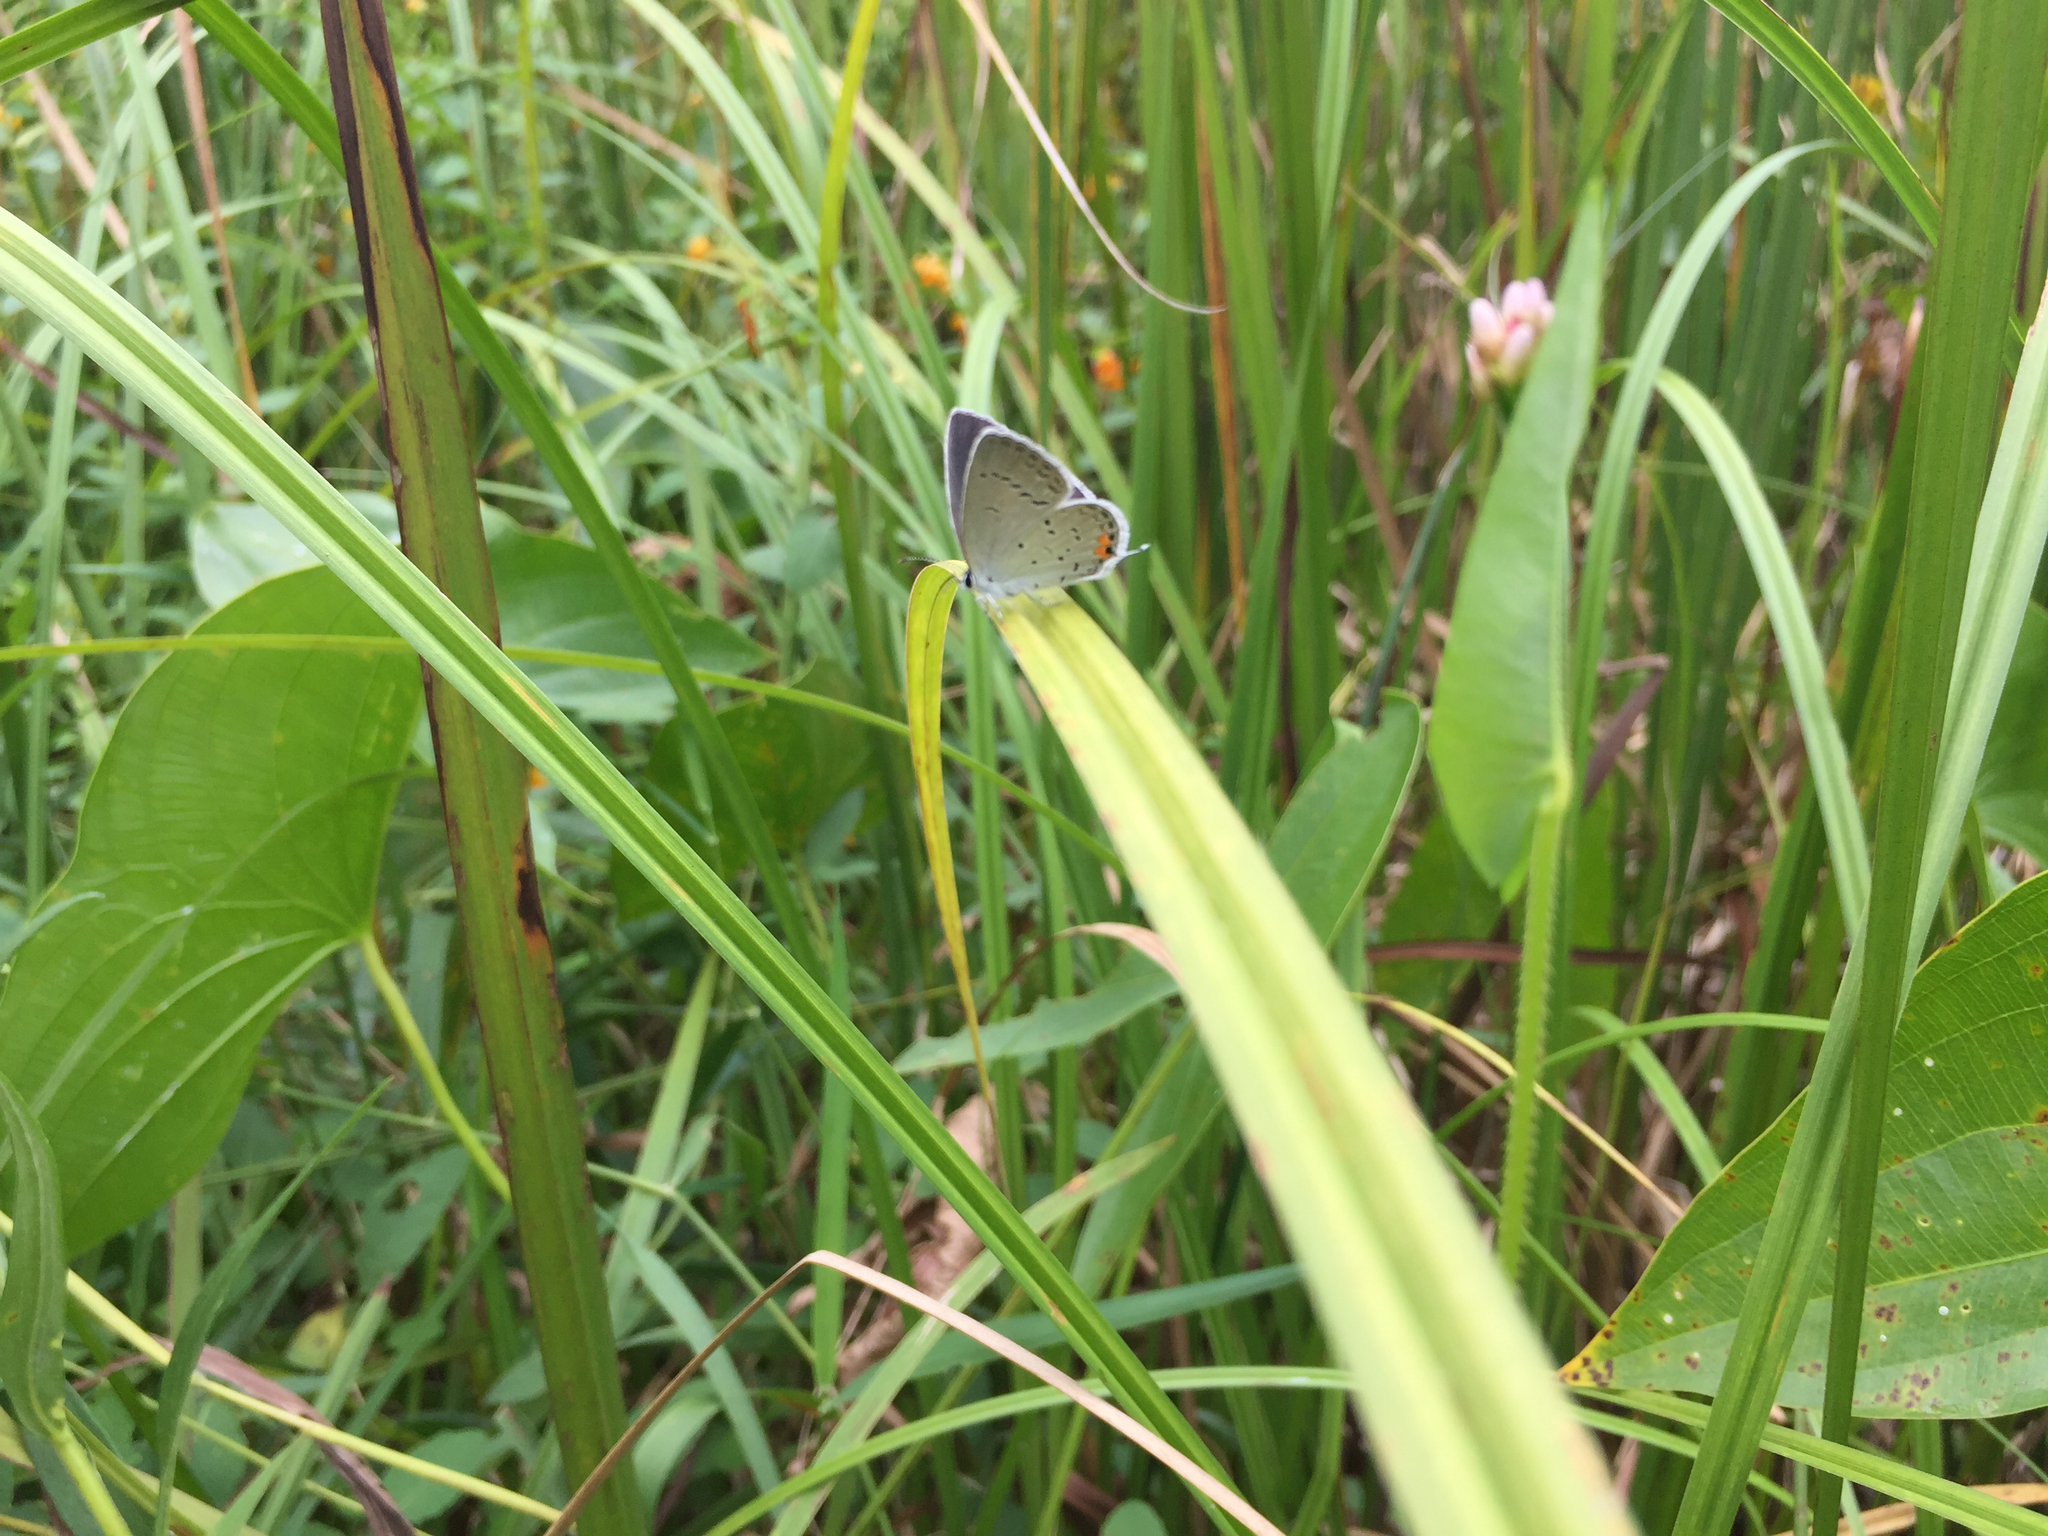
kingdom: Animalia
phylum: Arthropoda
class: Insecta
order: Lepidoptera
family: Lycaenidae
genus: Elkalyce
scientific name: Elkalyce comyntas
